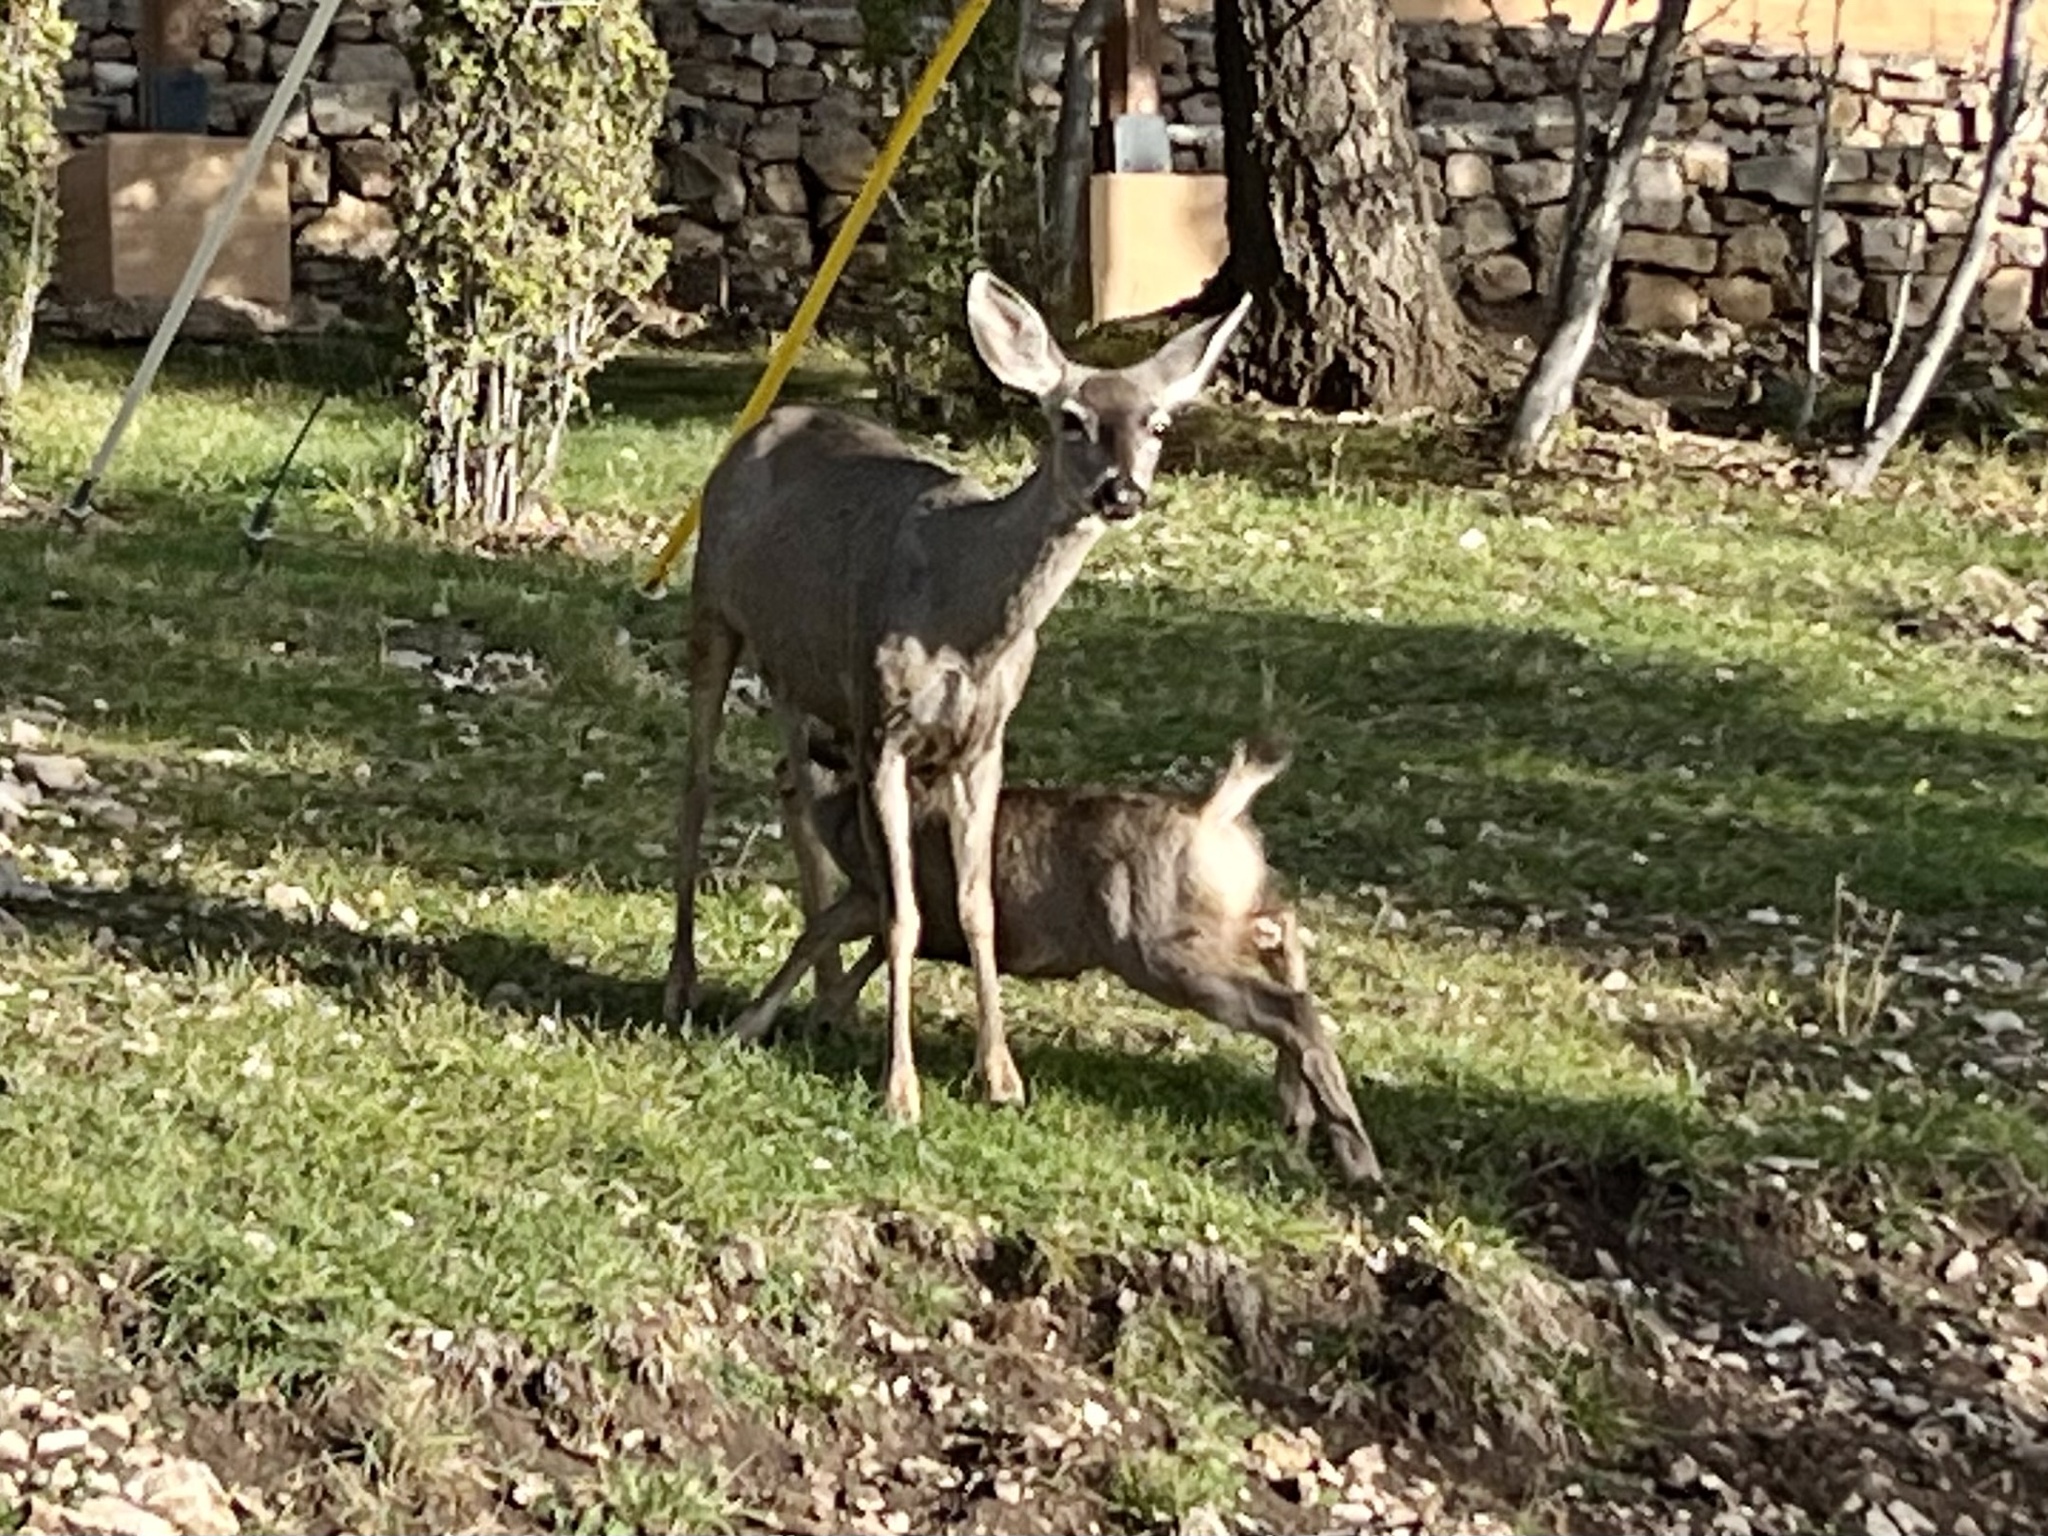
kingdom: Animalia
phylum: Chordata
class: Mammalia
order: Artiodactyla
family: Cervidae
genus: Odocoileus
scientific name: Odocoileus hemionus
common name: Mule deer
